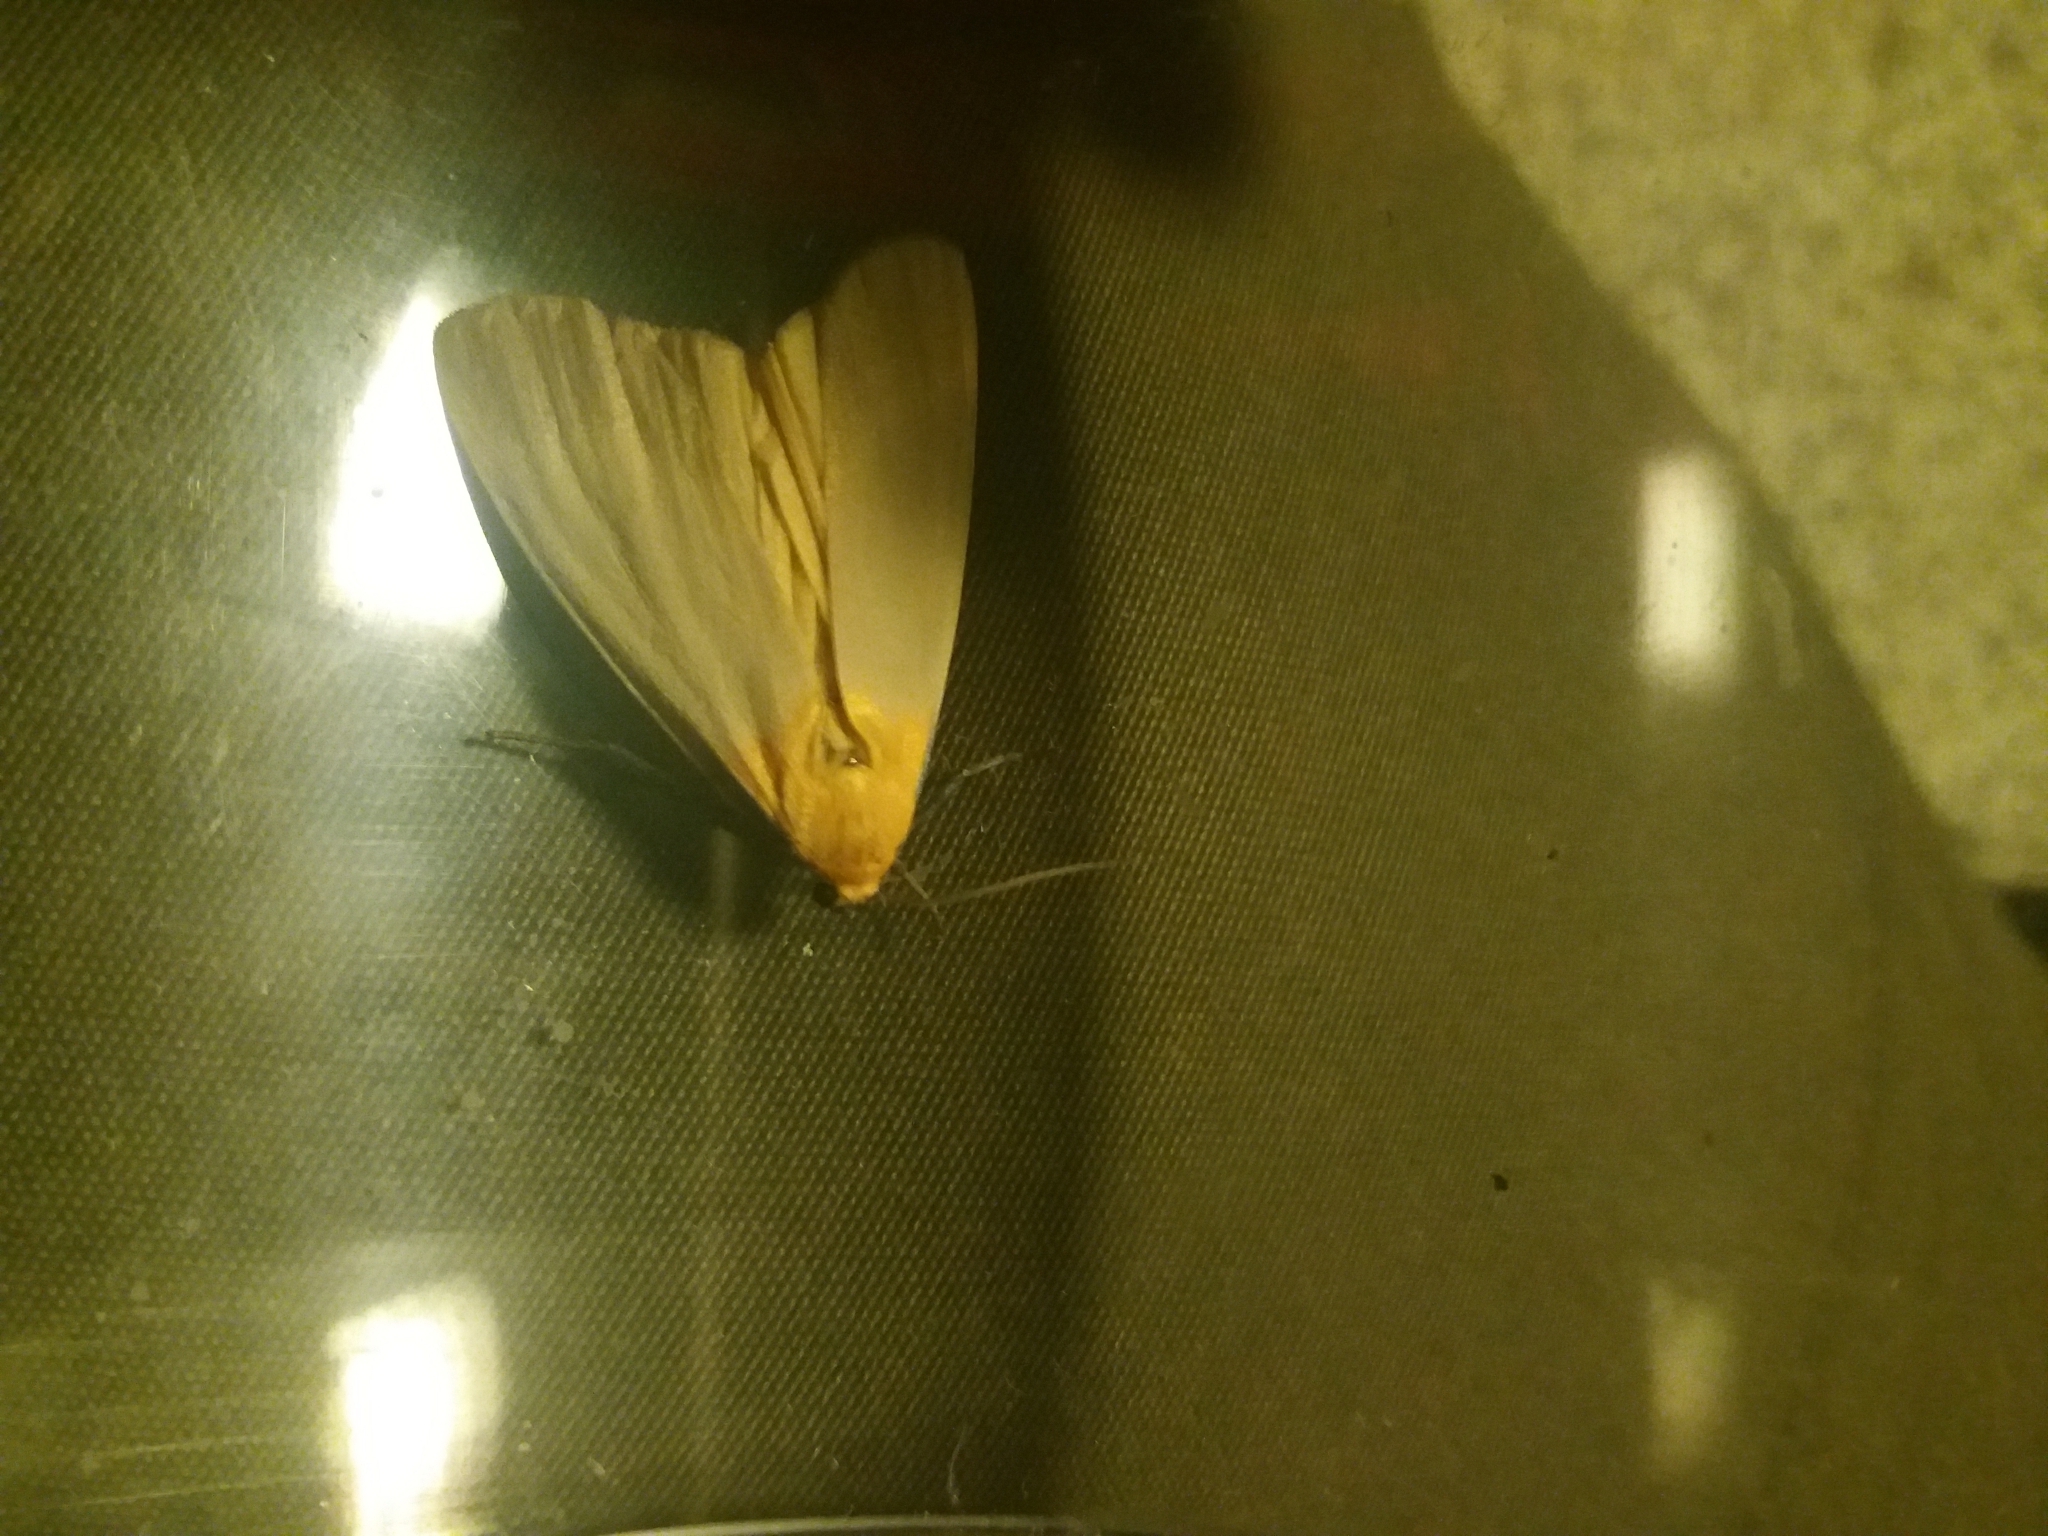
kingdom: Animalia
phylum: Arthropoda
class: Insecta
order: Lepidoptera
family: Erebidae
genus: Lithosia
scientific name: Lithosia quadra
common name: Four-spotted footman
